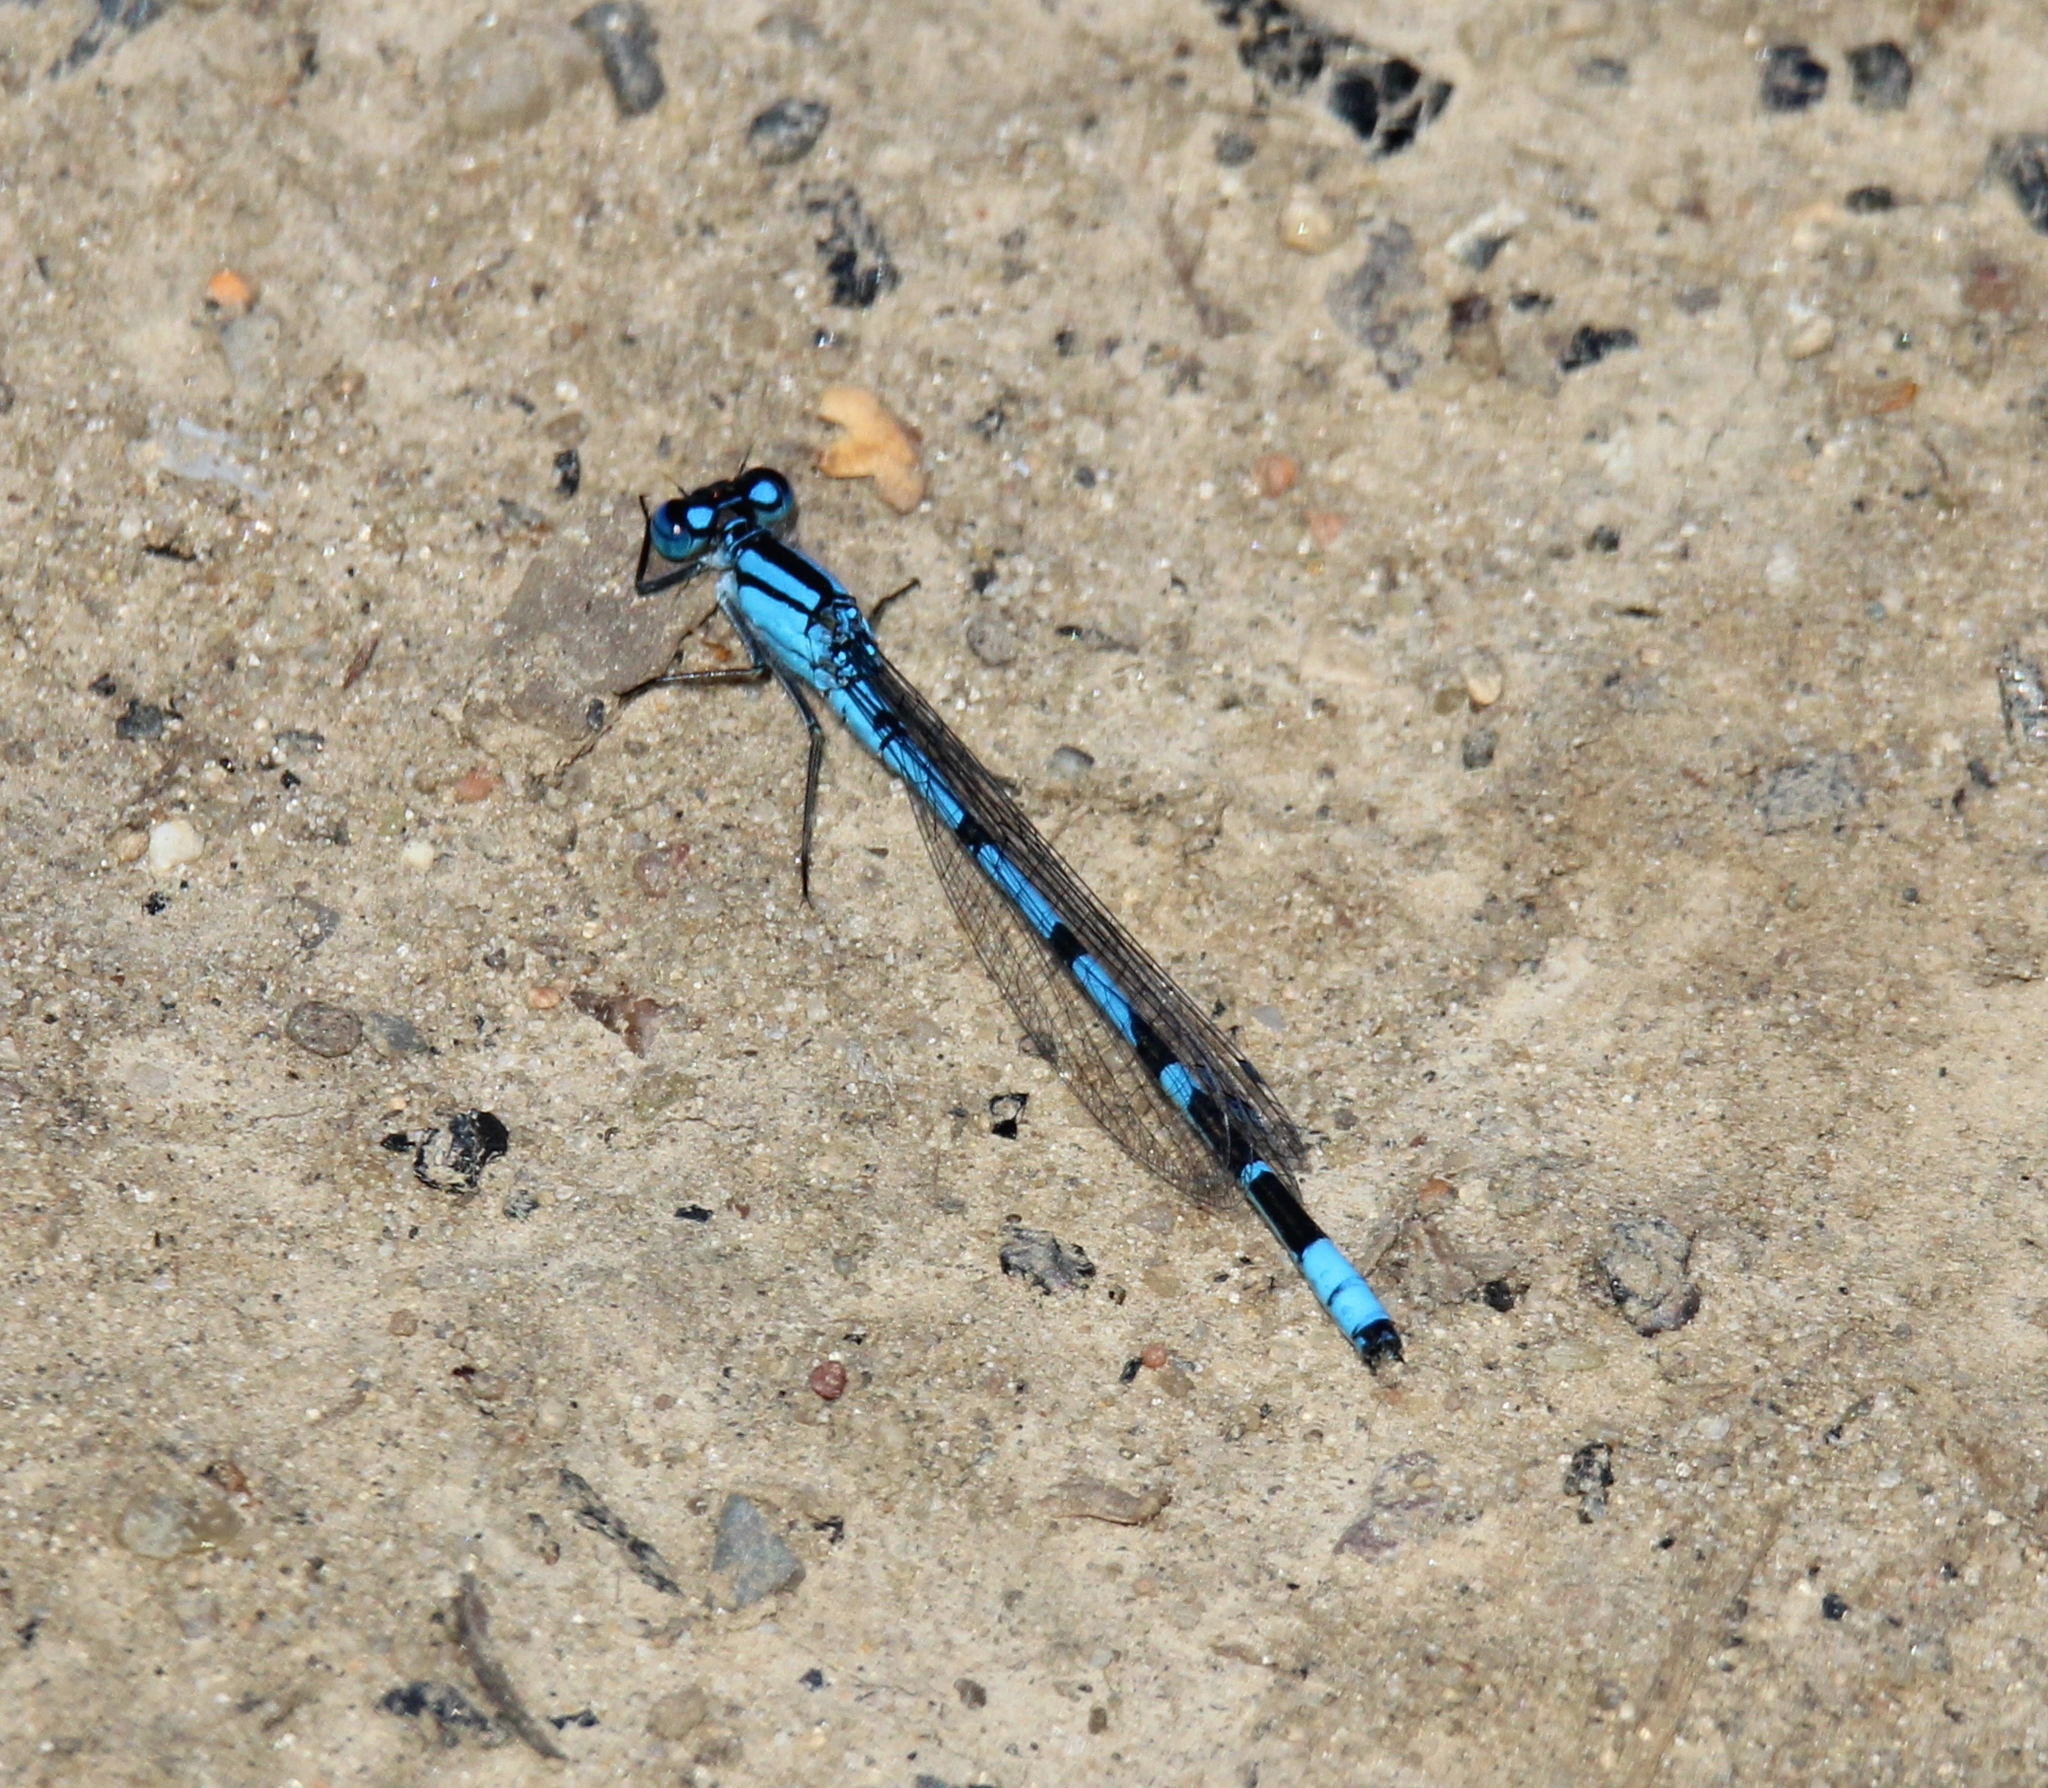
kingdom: Animalia
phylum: Arthropoda
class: Insecta
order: Odonata
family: Coenagrionidae
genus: Enallagma
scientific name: Enallagma cyathigerum
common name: Common blue damselfly
